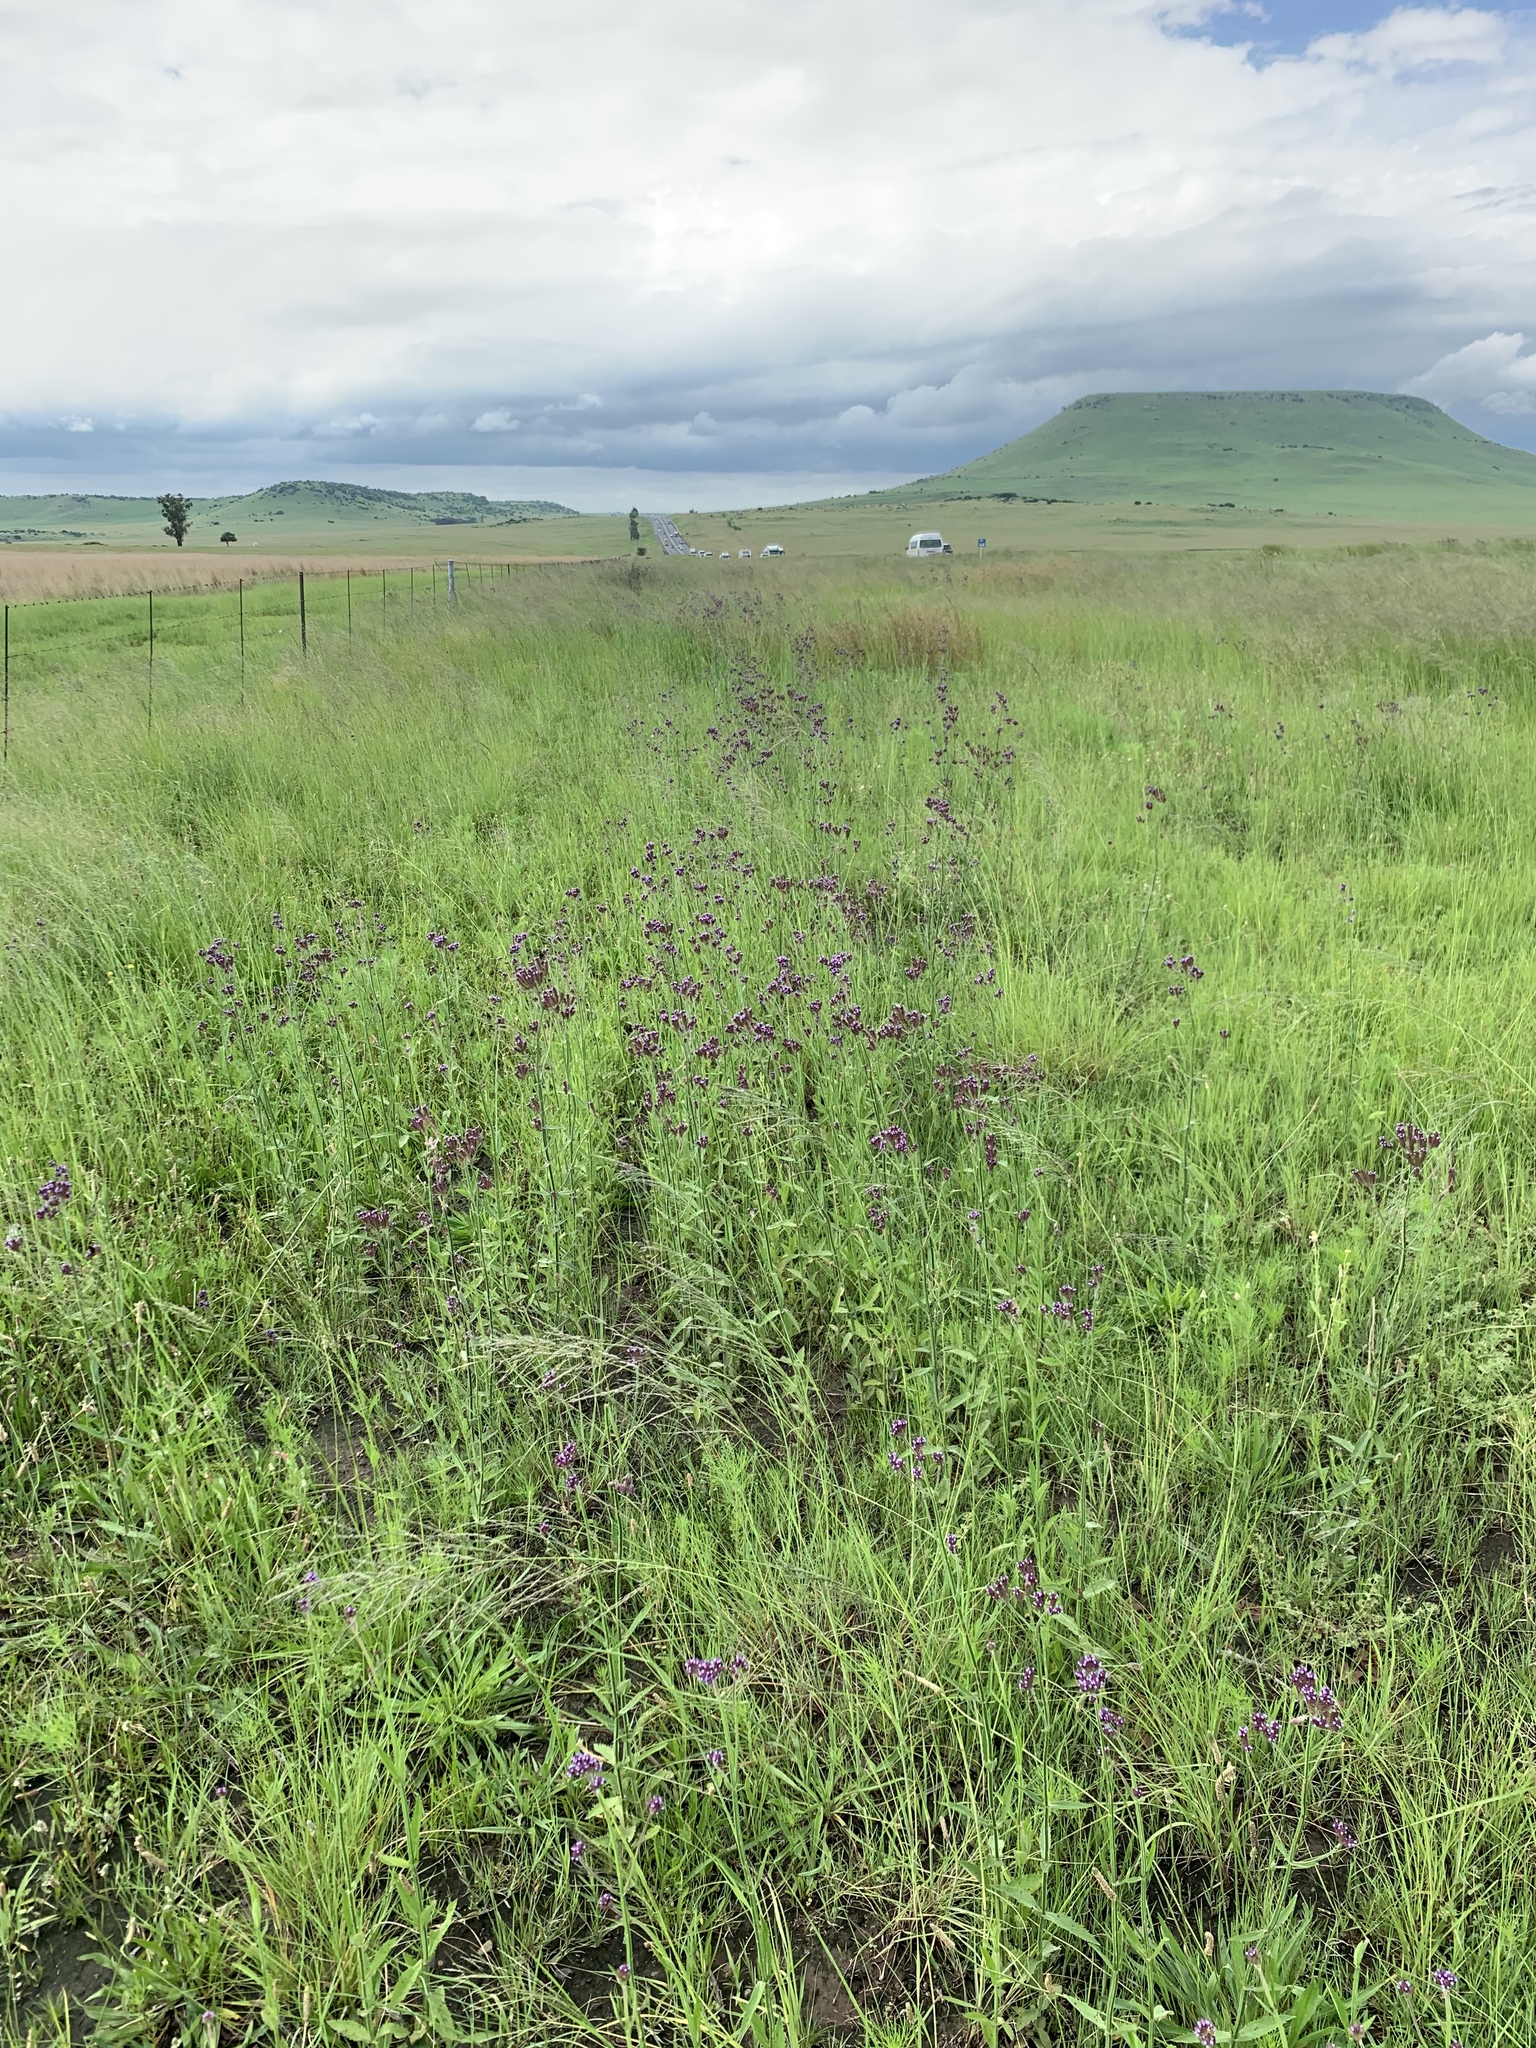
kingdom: Plantae
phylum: Tracheophyta
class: Magnoliopsida
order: Lamiales
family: Verbenaceae
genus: Verbena
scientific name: Verbena bonariensis
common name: Purpletop vervain
